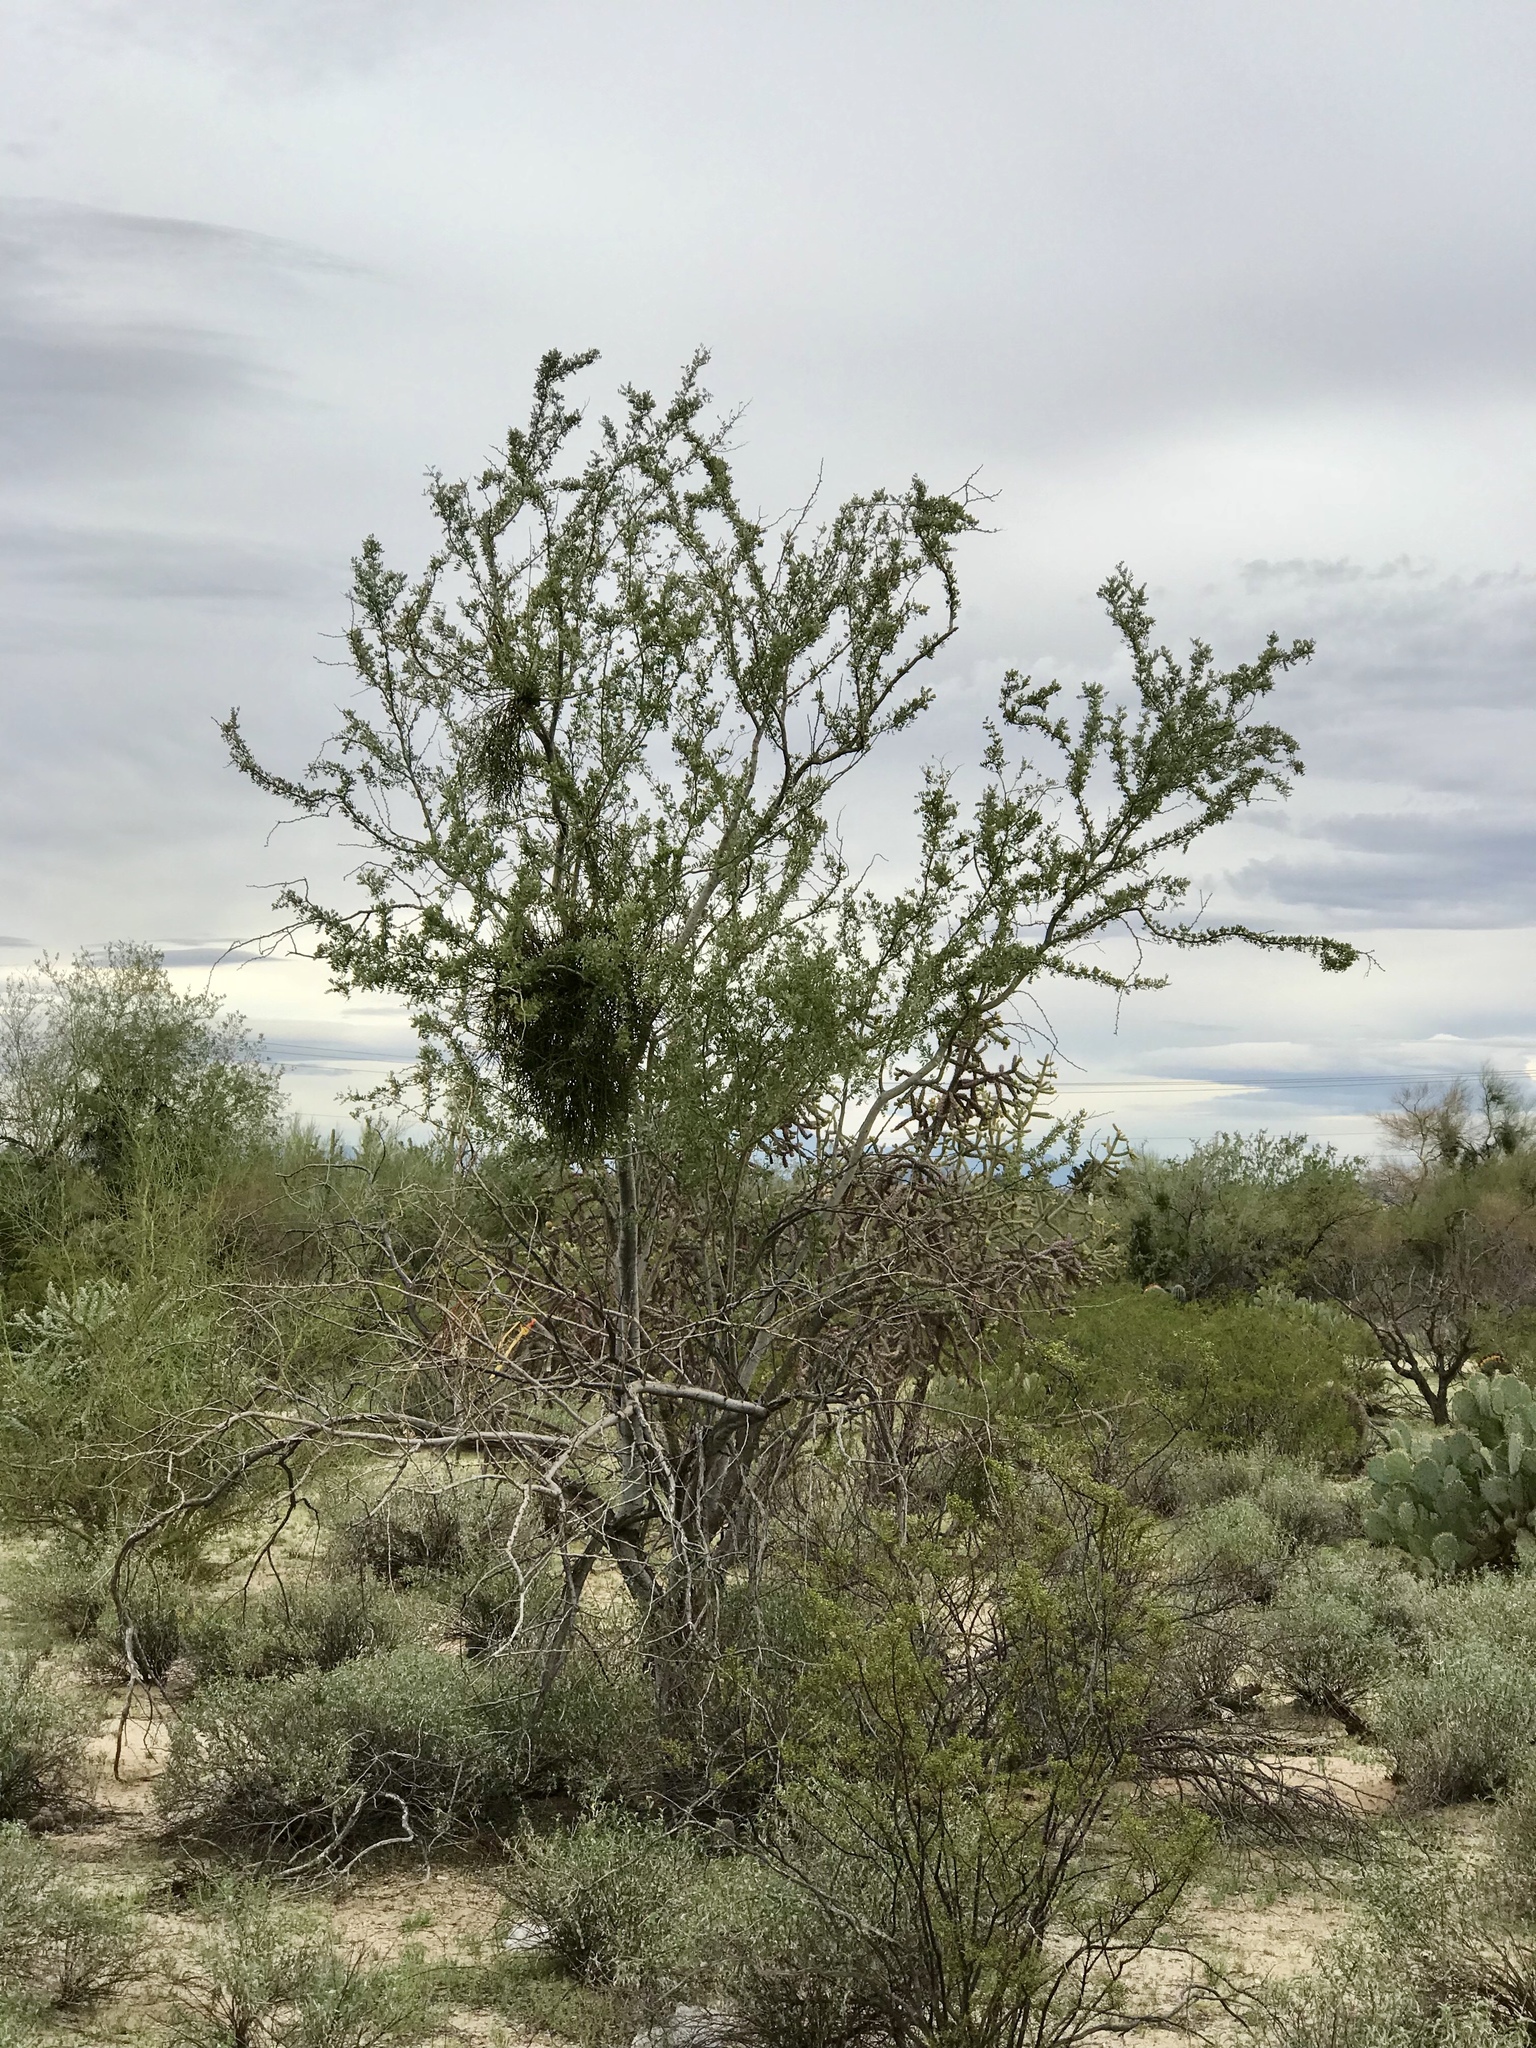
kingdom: Plantae
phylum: Tracheophyta
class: Magnoliopsida
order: Fabales
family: Fabaceae
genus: Olneya
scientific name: Olneya tesota
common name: Desert ironwood
